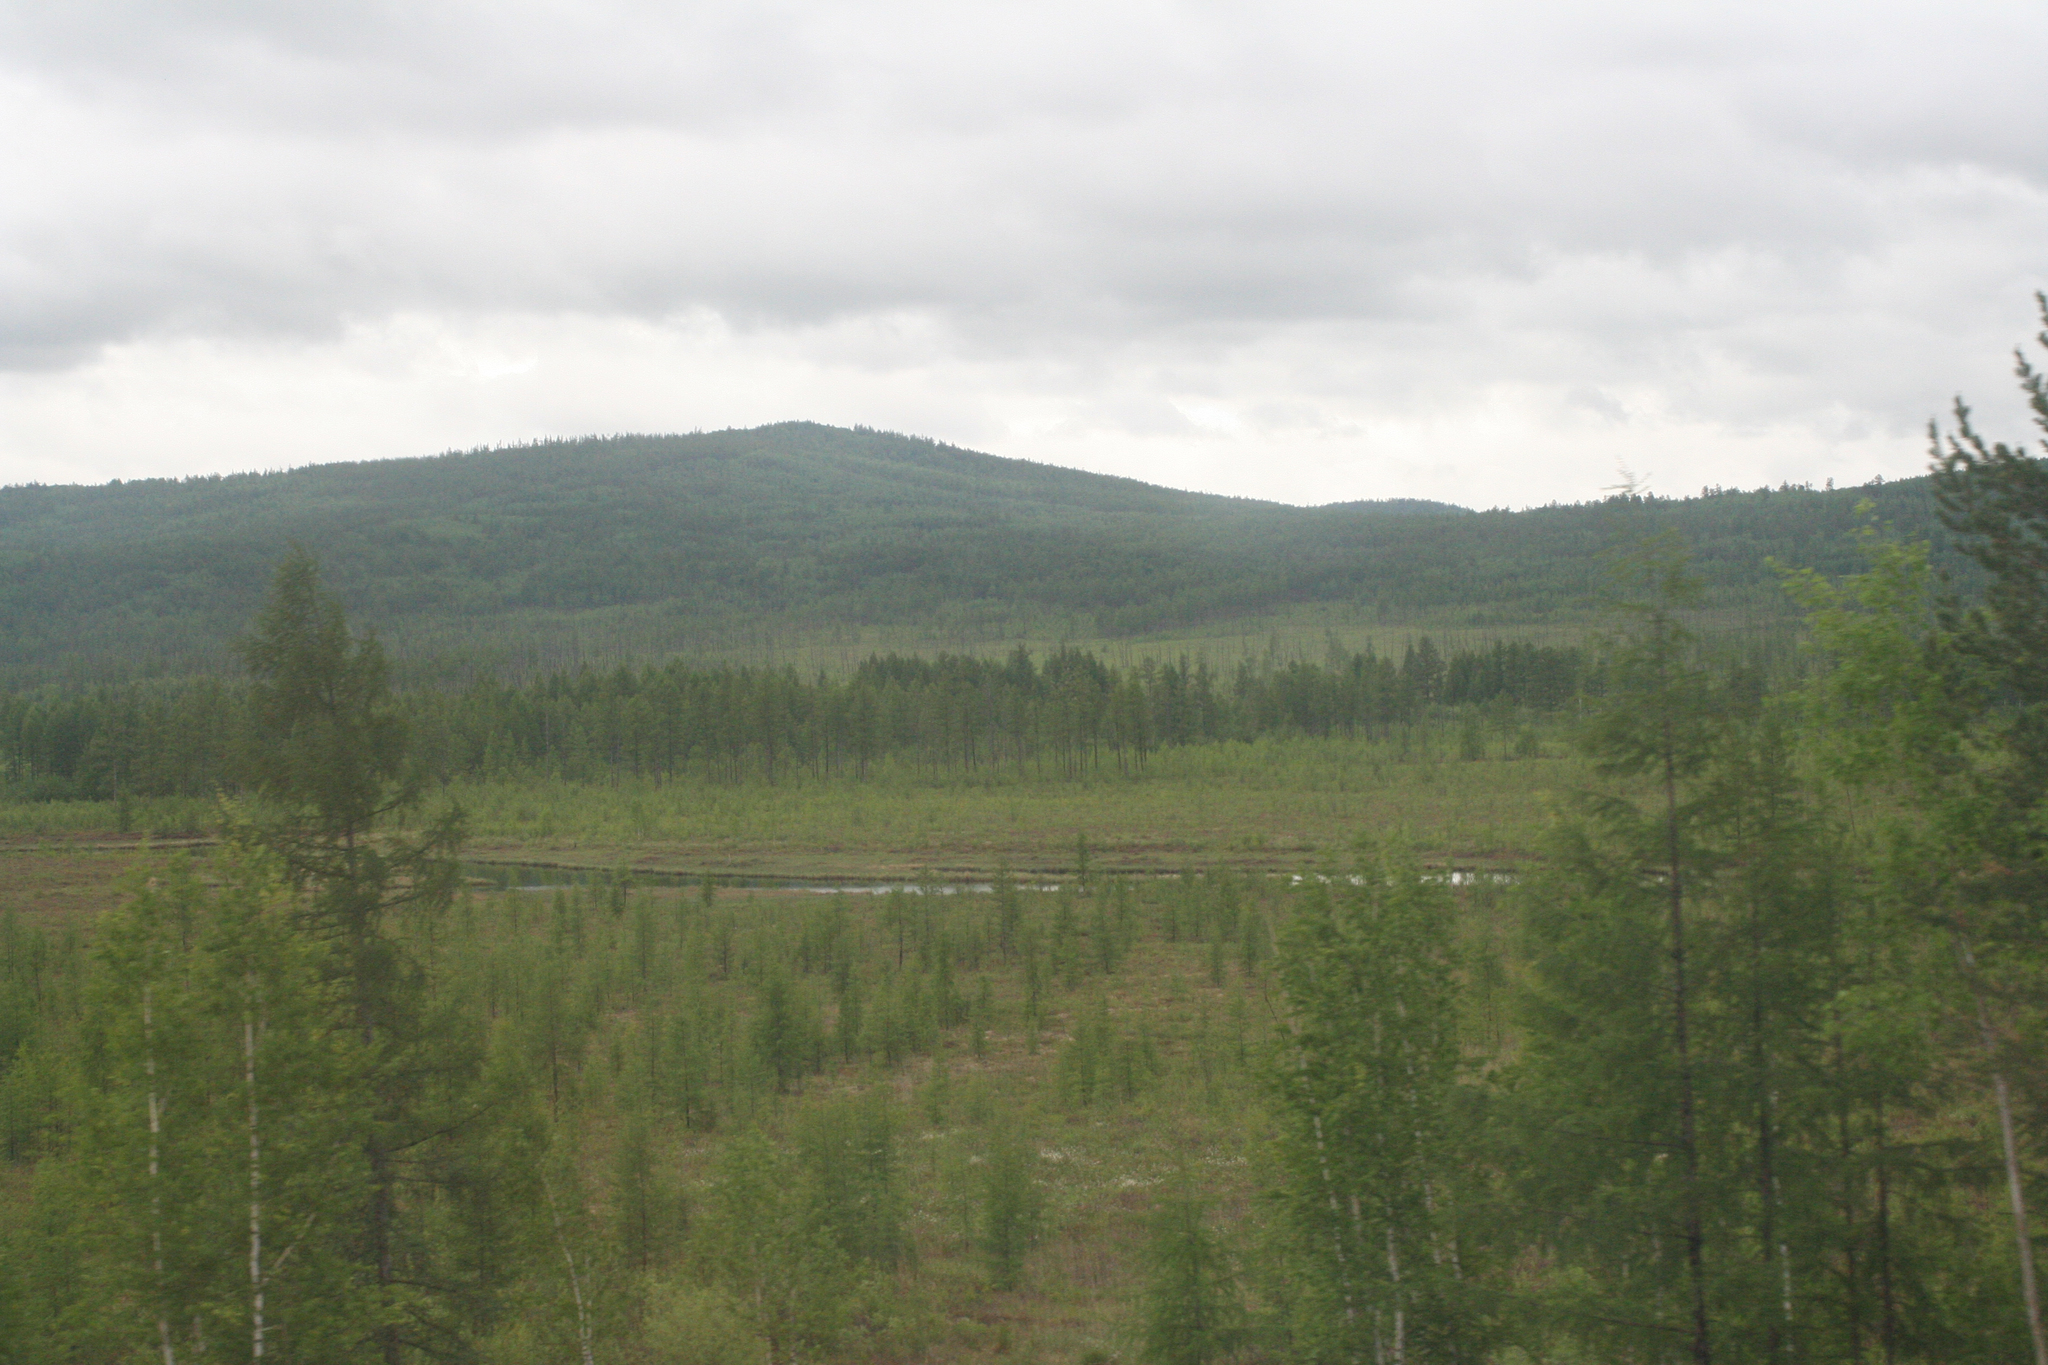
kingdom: Plantae
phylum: Tracheophyta
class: Pinopsida
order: Pinales
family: Pinaceae
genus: Larix
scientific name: Larix gmelinii
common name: Dahurian larch
